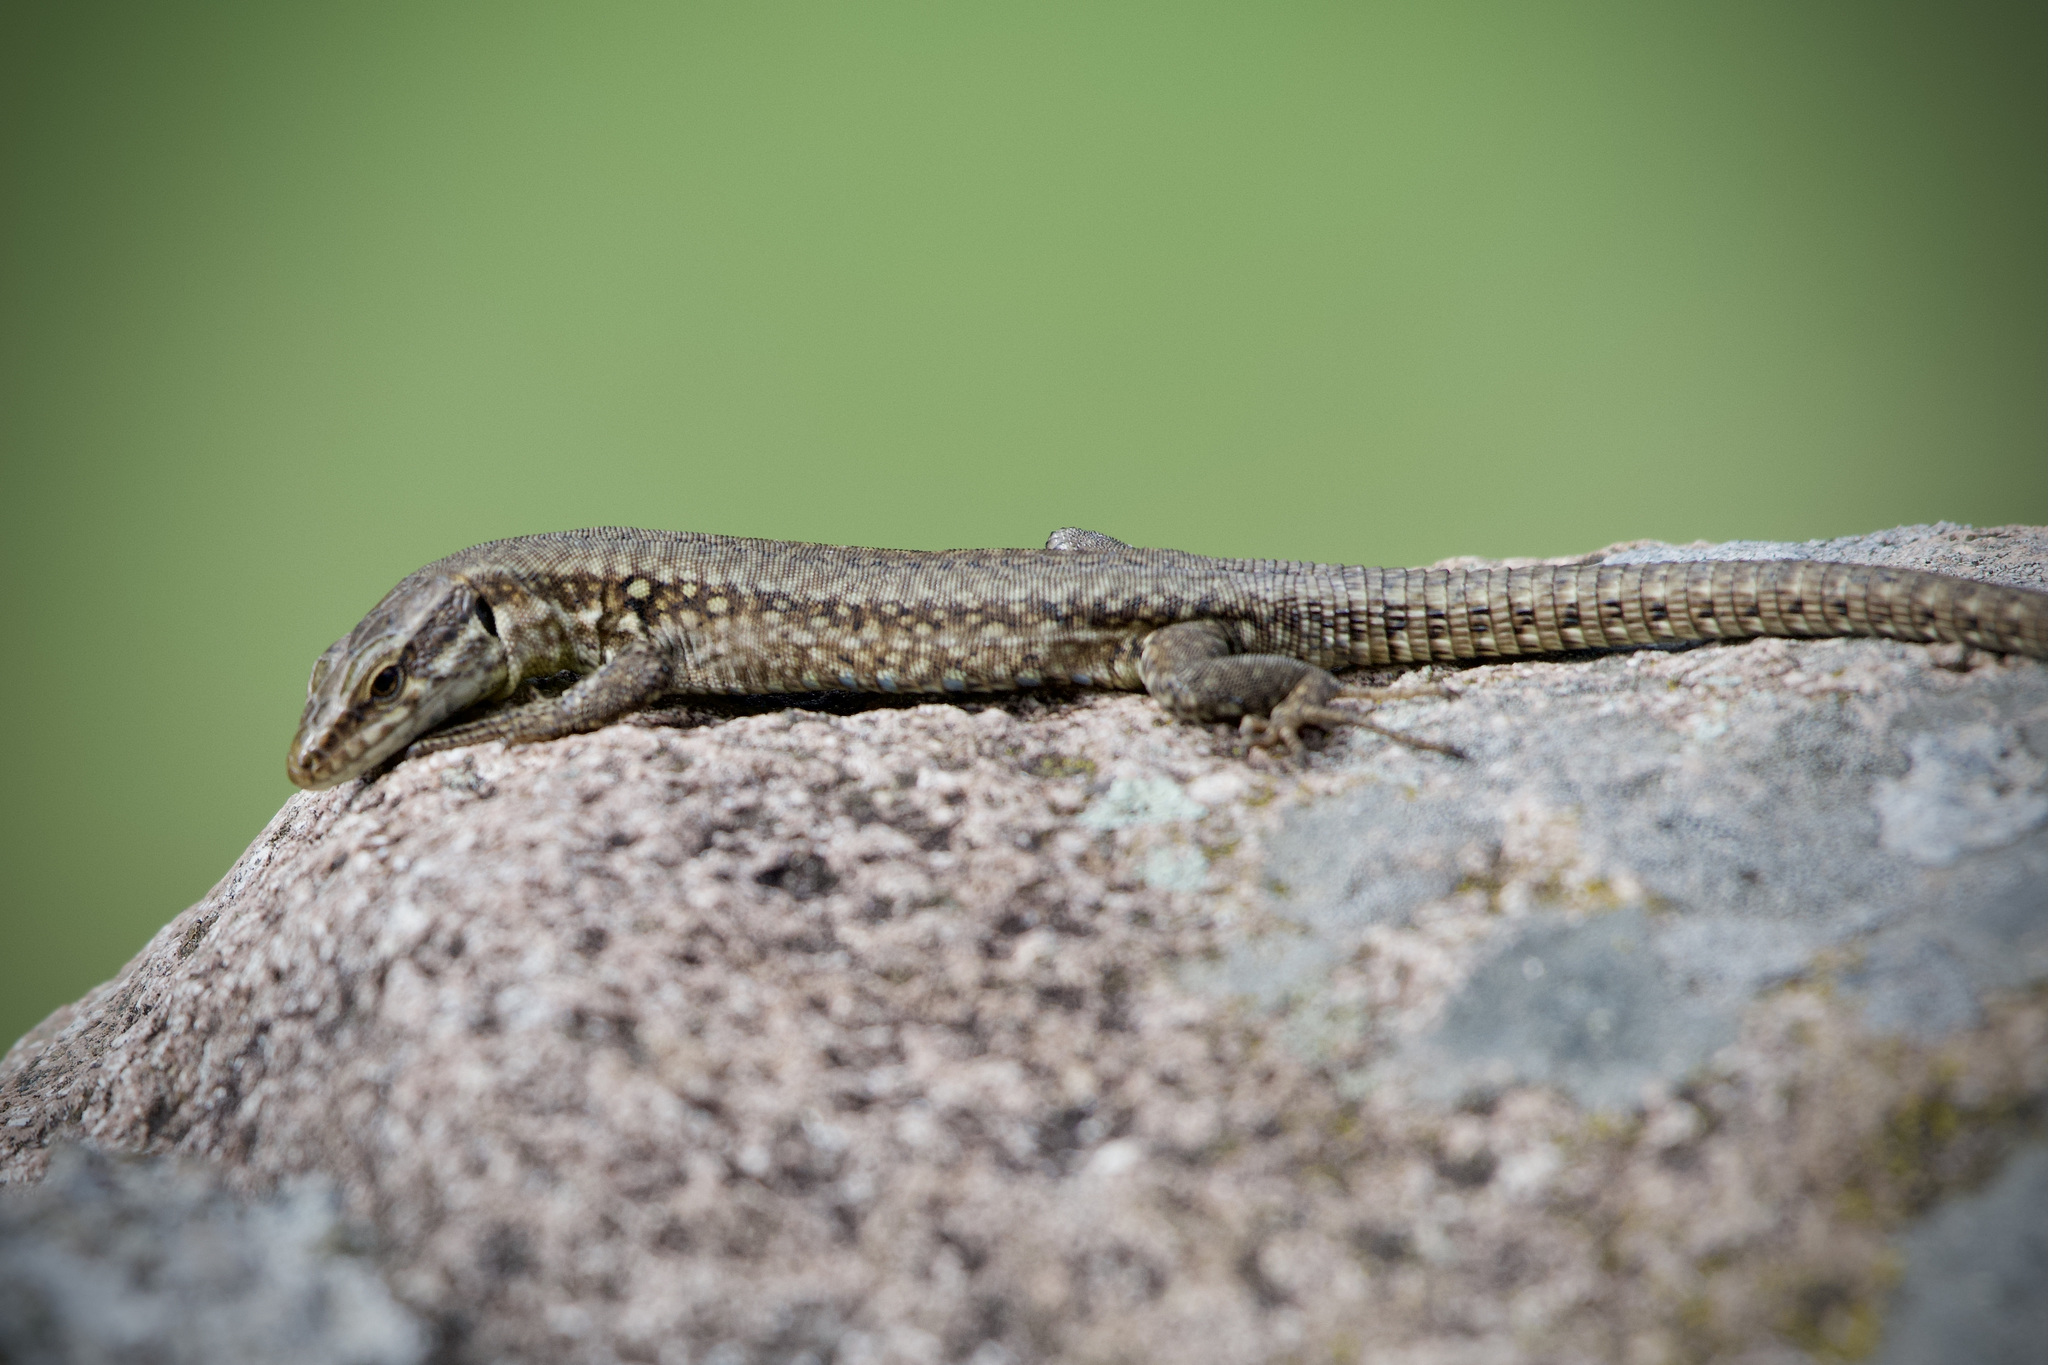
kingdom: Animalia
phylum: Chordata
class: Squamata
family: Lacertidae
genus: Podarcis
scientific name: Podarcis muralis
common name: Common wall lizard
